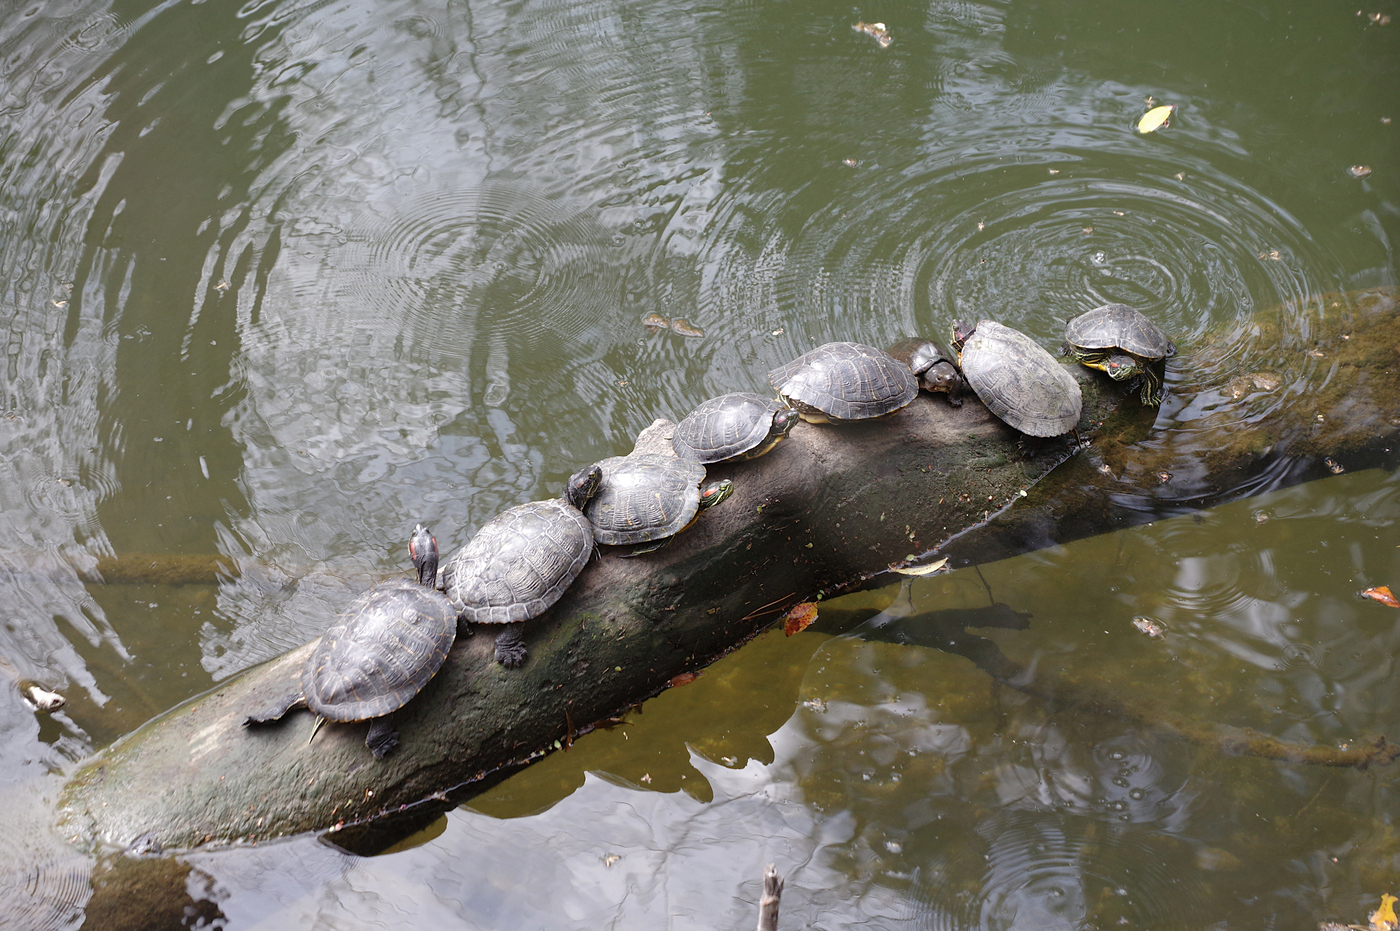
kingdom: Animalia
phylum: Chordata
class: Testudines
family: Emydidae
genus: Trachemys
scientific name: Trachemys scripta
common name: Slider
